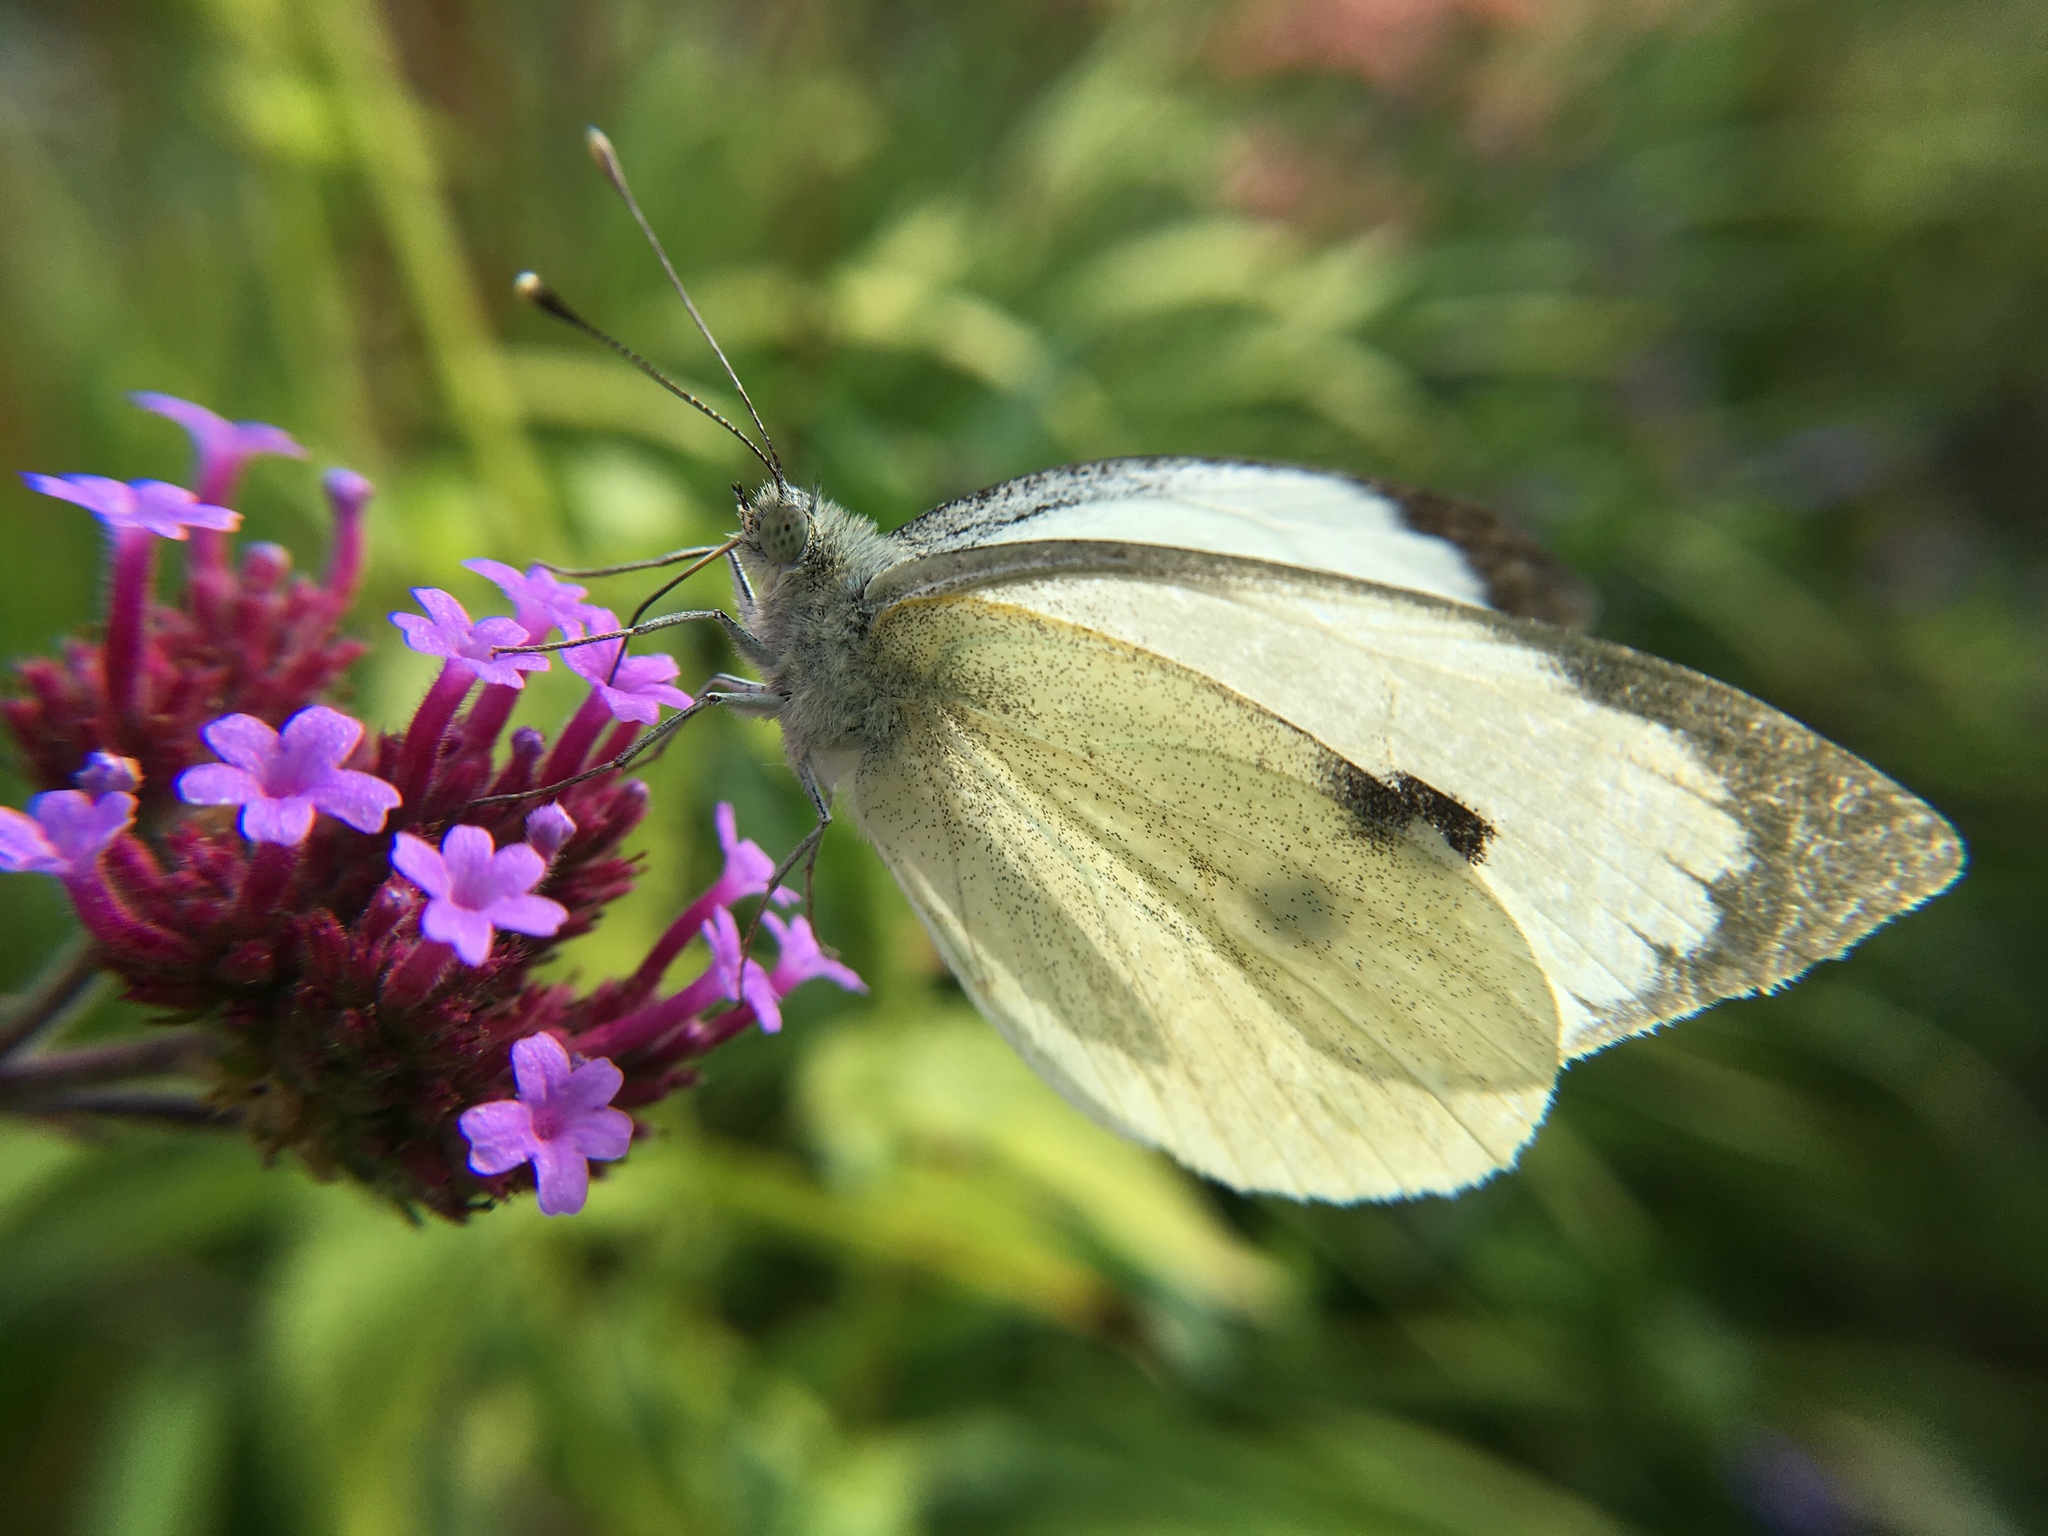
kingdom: Animalia
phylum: Arthropoda
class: Insecta
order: Lepidoptera
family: Pieridae
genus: Pieris
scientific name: Pieris brassicae
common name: Large white
